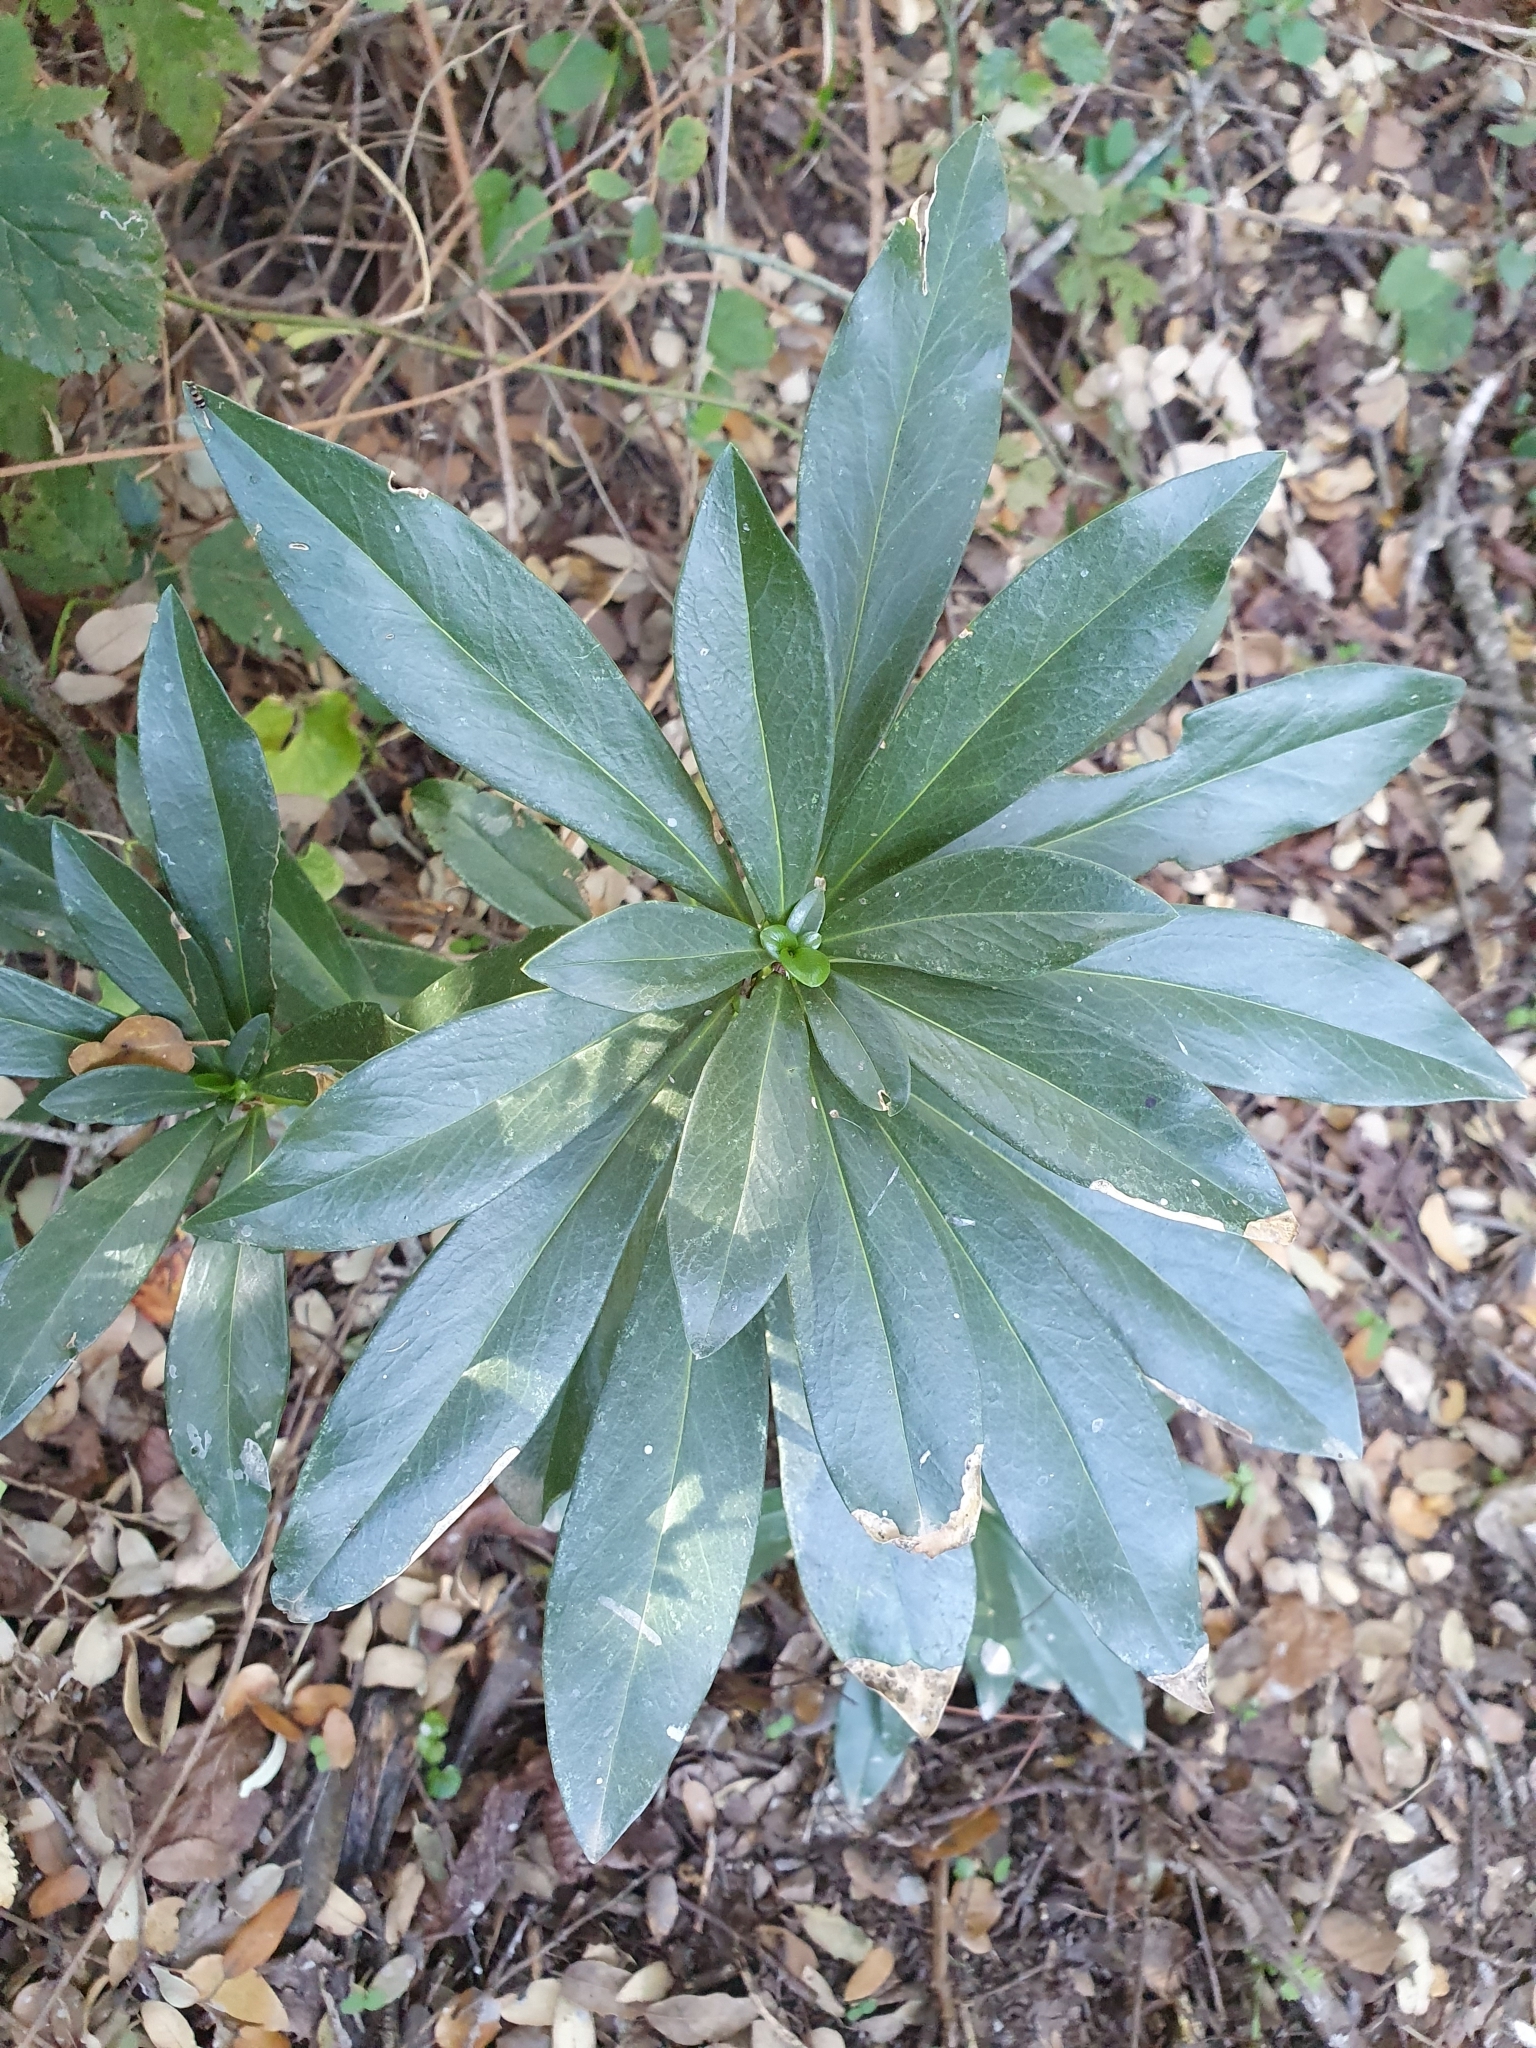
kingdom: Plantae
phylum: Tracheophyta
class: Magnoliopsida
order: Malvales
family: Thymelaeaceae
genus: Daphne
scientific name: Daphne laureola
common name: Spurge-laurel
